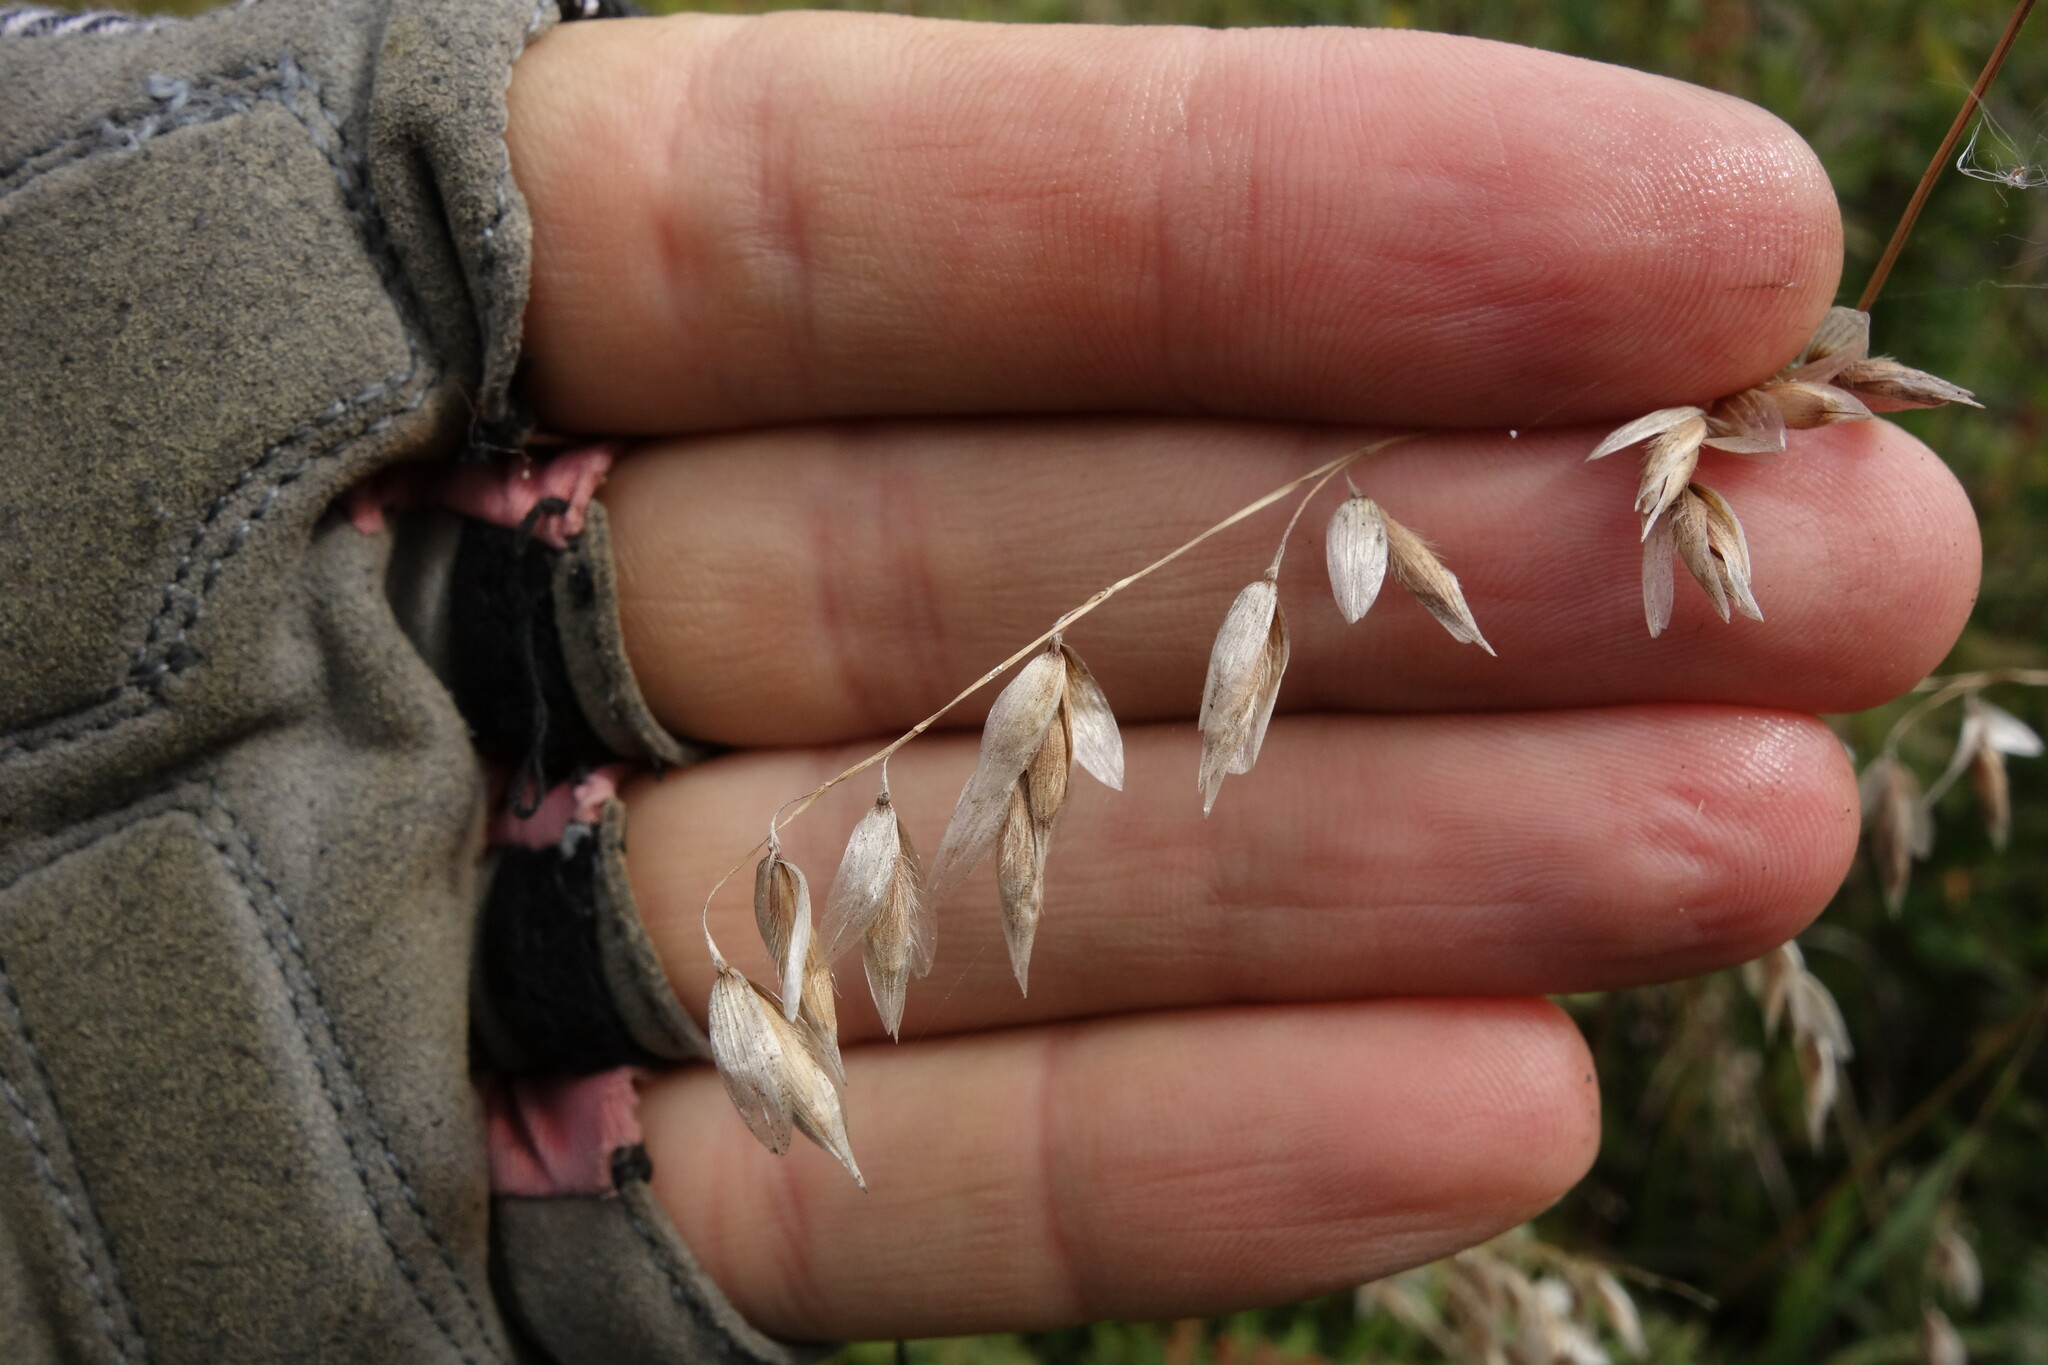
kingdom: Plantae
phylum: Tracheophyta
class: Liliopsida
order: Poales
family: Poaceae
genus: Melica
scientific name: Melica turczaninowiana
